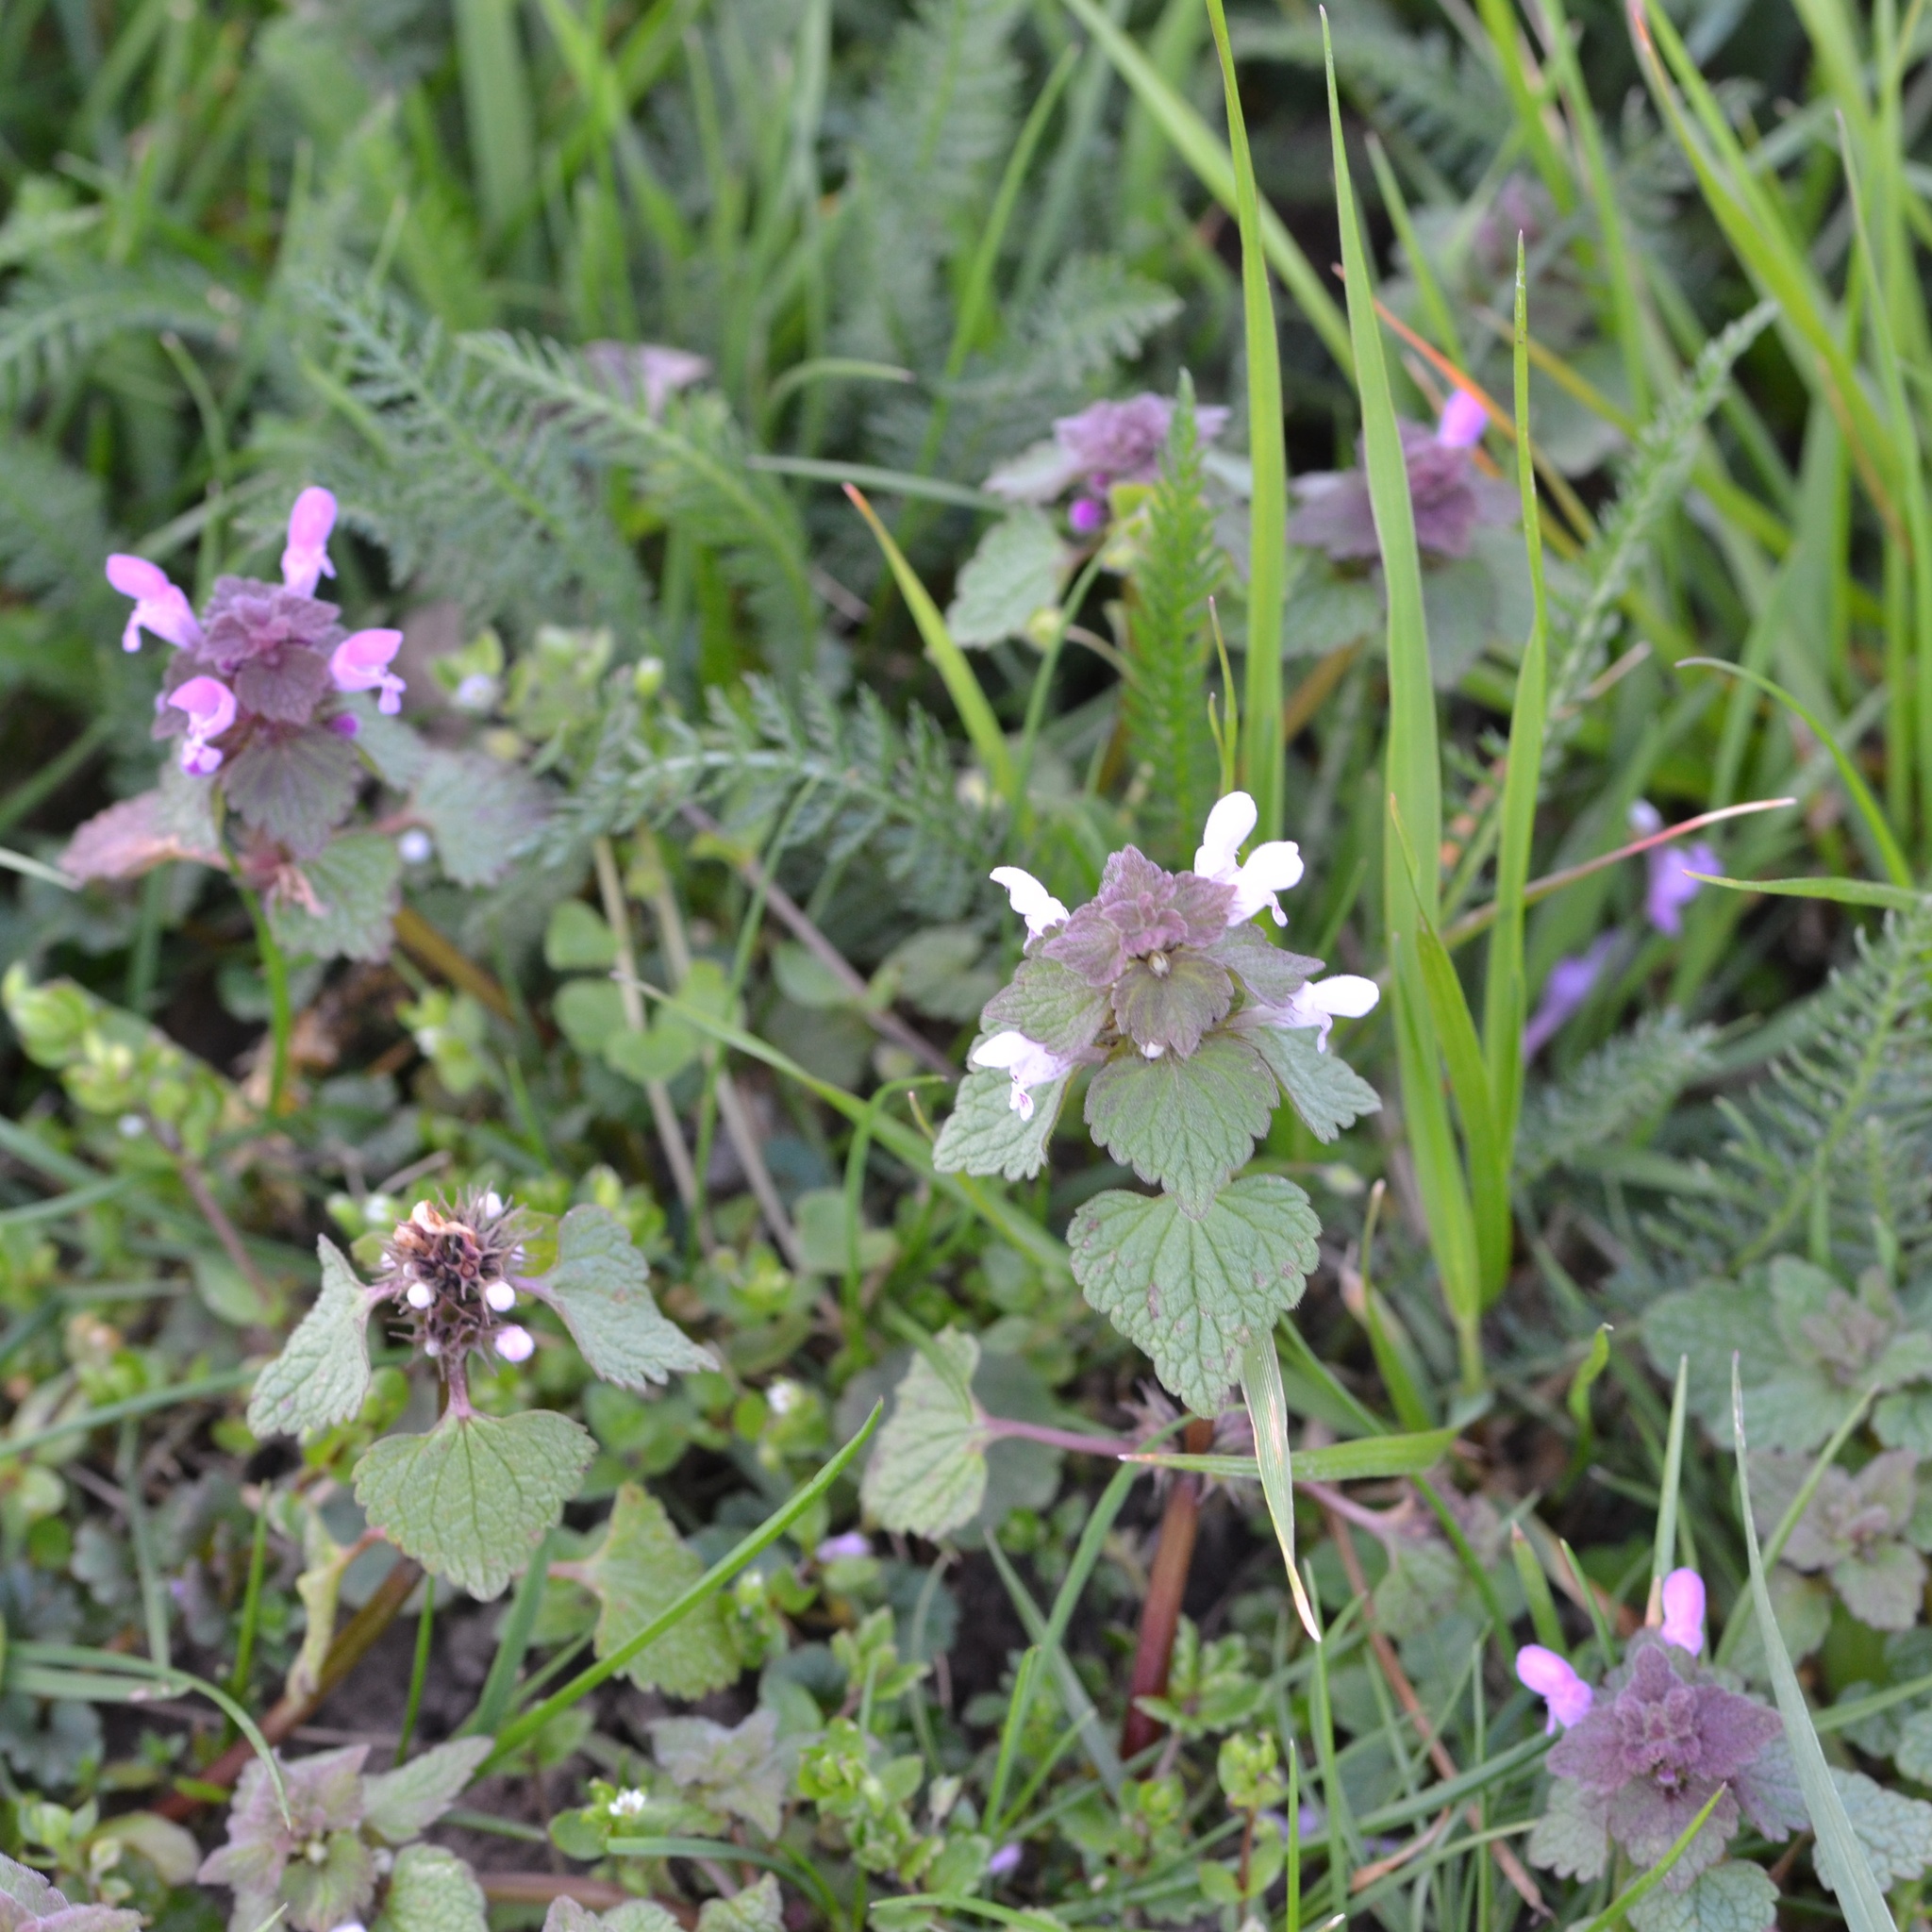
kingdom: Plantae
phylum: Tracheophyta
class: Magnoliopsida
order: Lamiales
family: Lamiaceae
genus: Lamium
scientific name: Lamium purpureum
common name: Red dead-nettle
